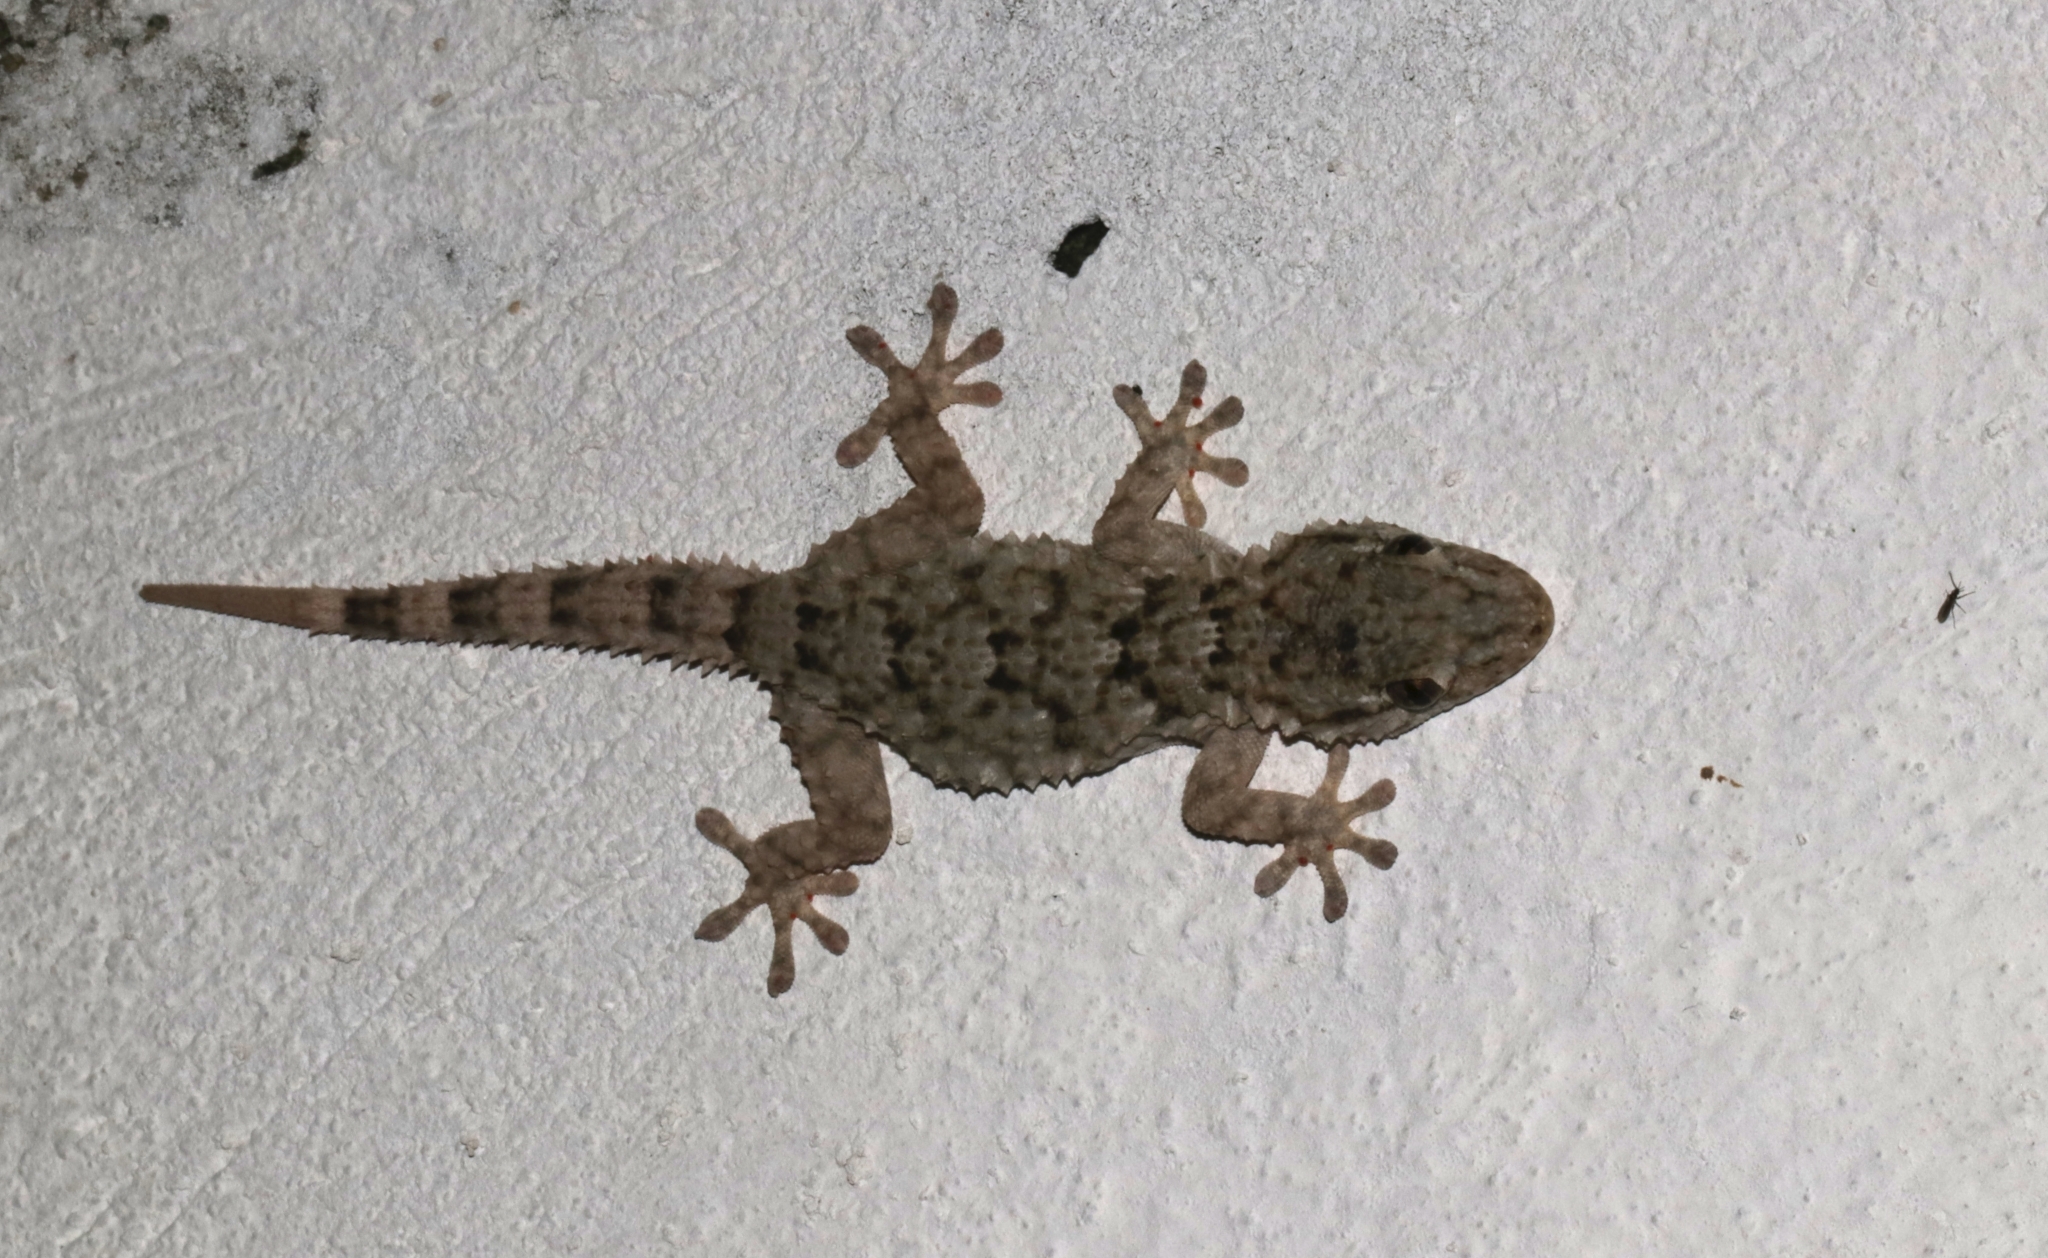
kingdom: Animalia
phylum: Chordata
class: Squamata
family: Phyllodactylidae
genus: Tarentola
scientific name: Tarentola mauritanica
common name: Moorish gecko
